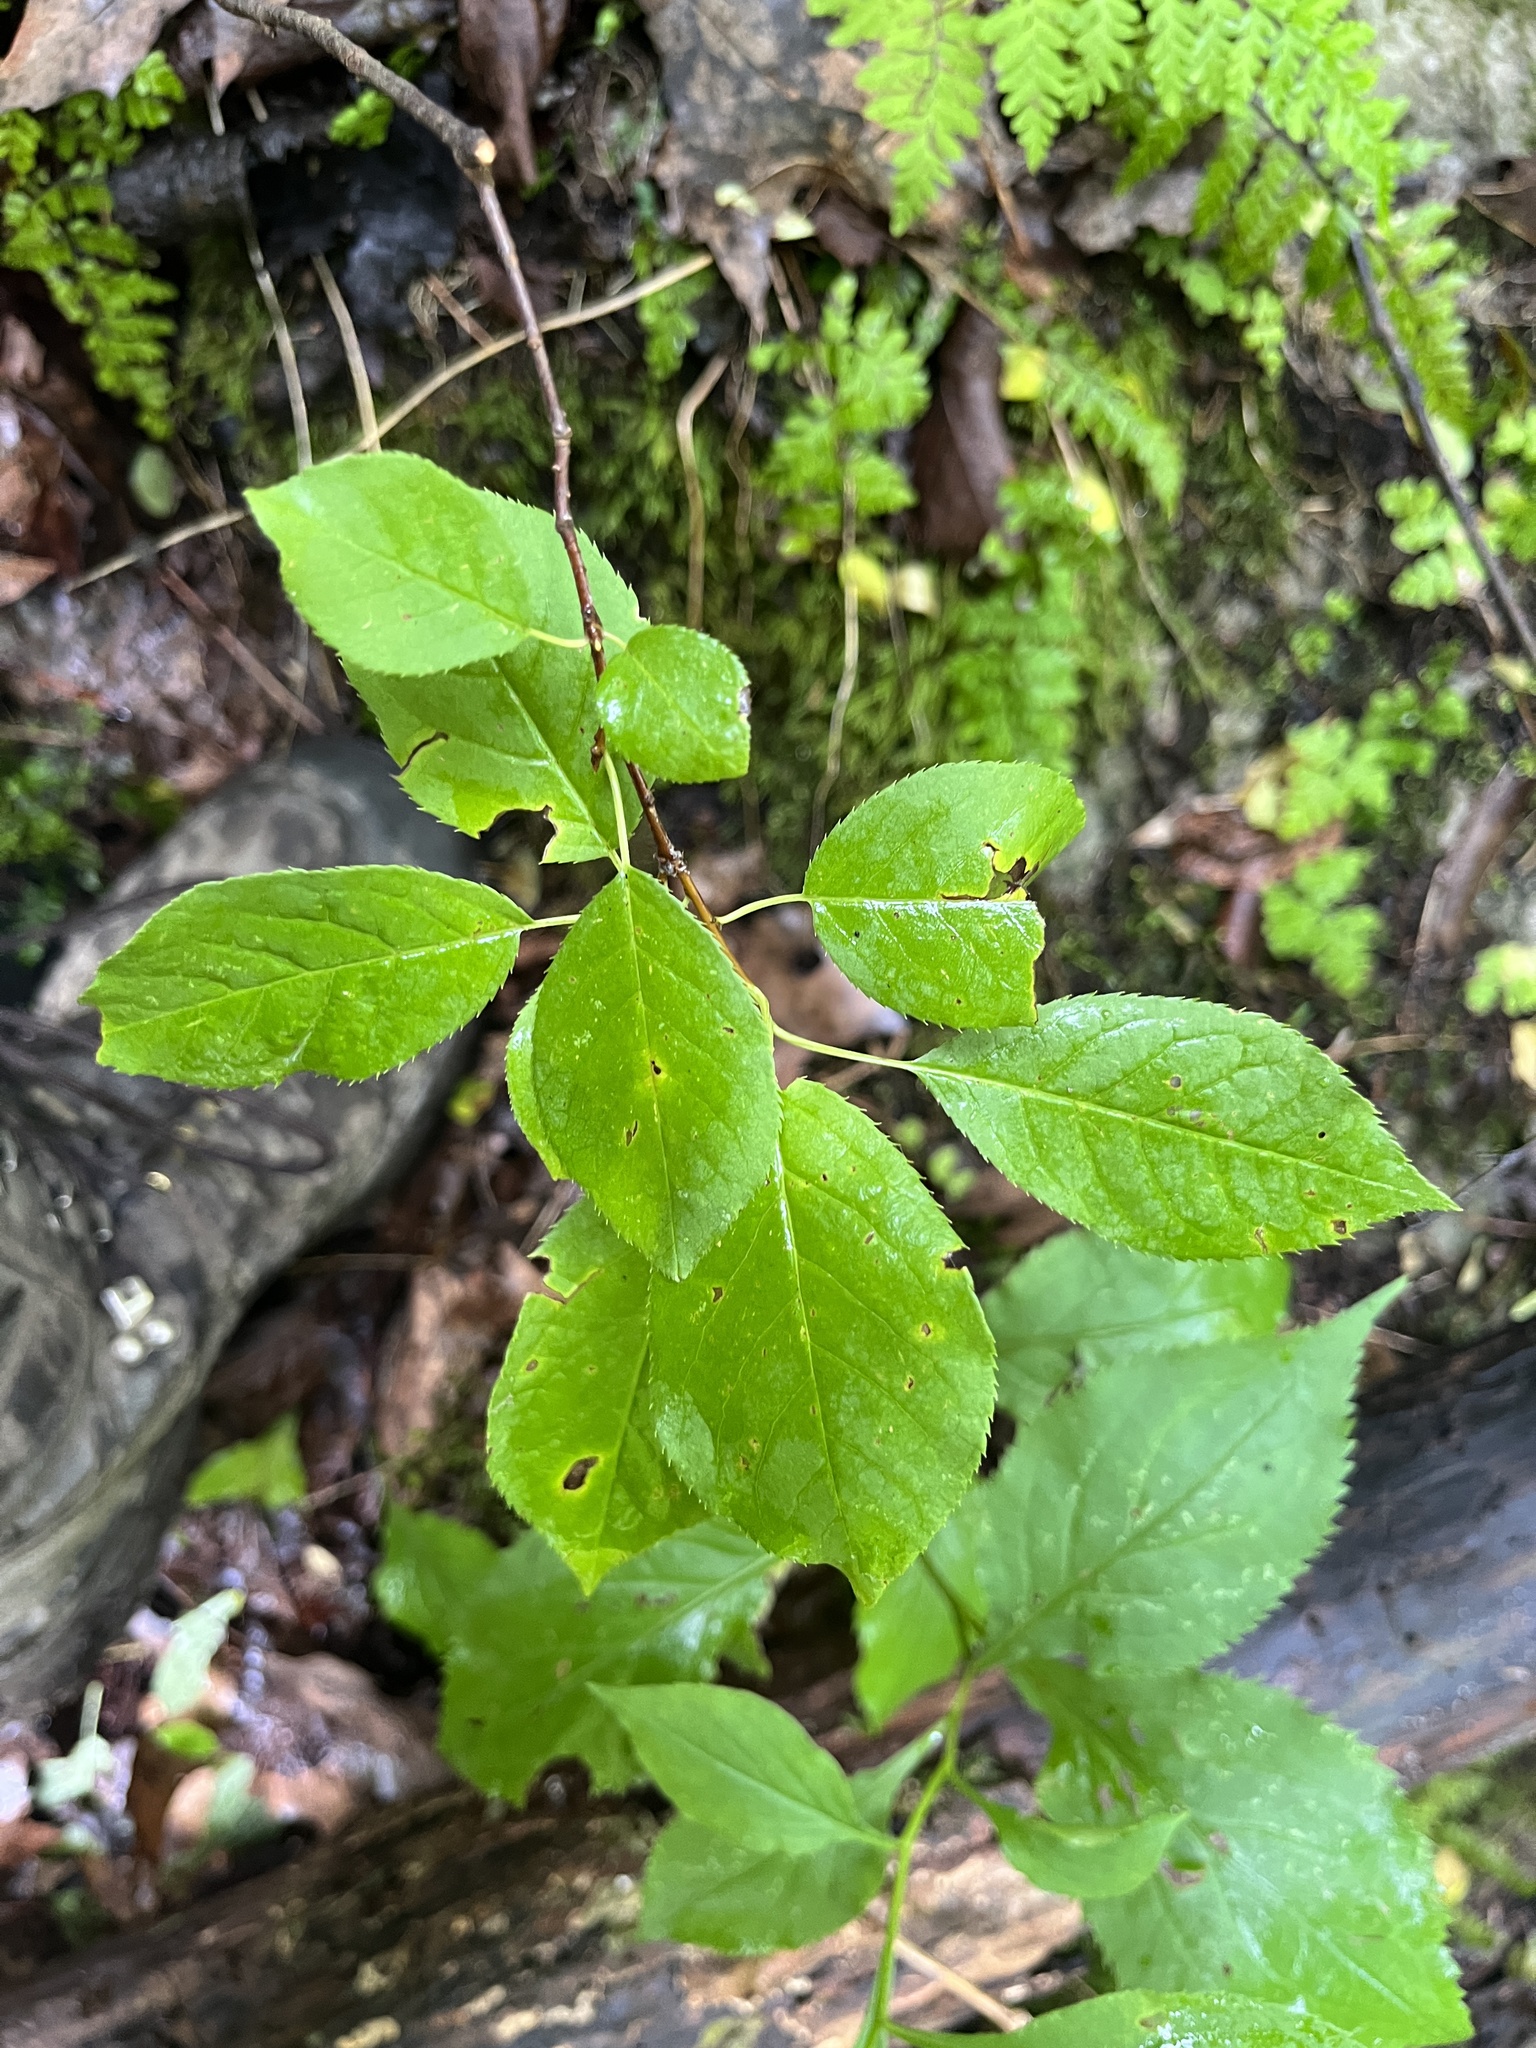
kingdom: Plantae
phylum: Tracheophyta
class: Magnoliopsida
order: Rosales
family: Rosaceae
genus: Prunus
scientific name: Prunus virginiana
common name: Chokecherry
